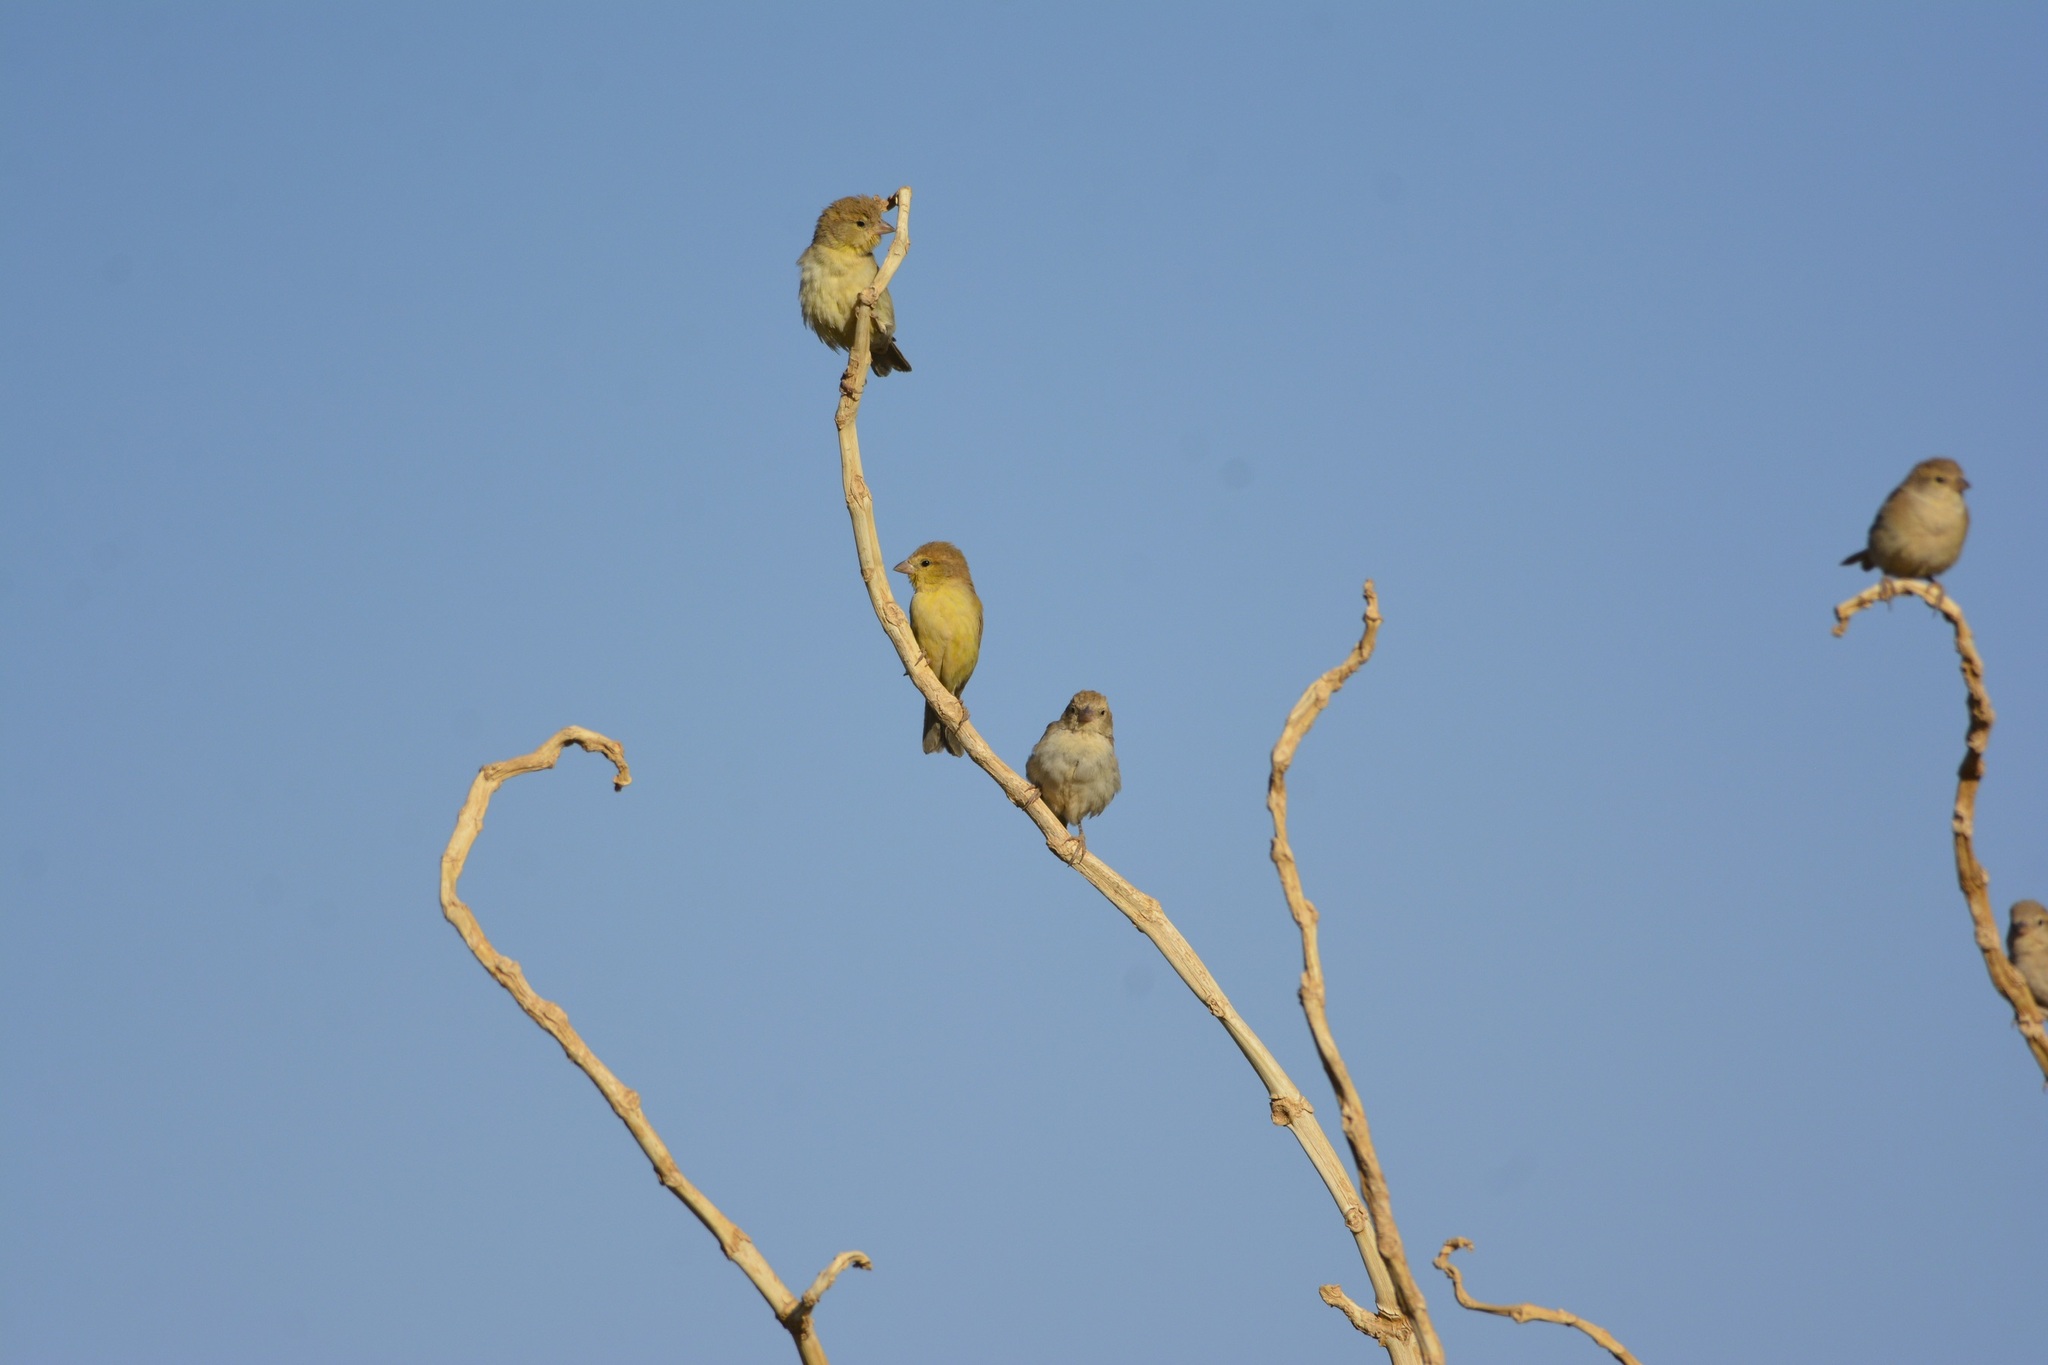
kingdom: Animalia
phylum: Chordata
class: Aves
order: Passeriformes
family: Passeridae
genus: Passer
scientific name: Passer luteus
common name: Sudan golden sparrow
